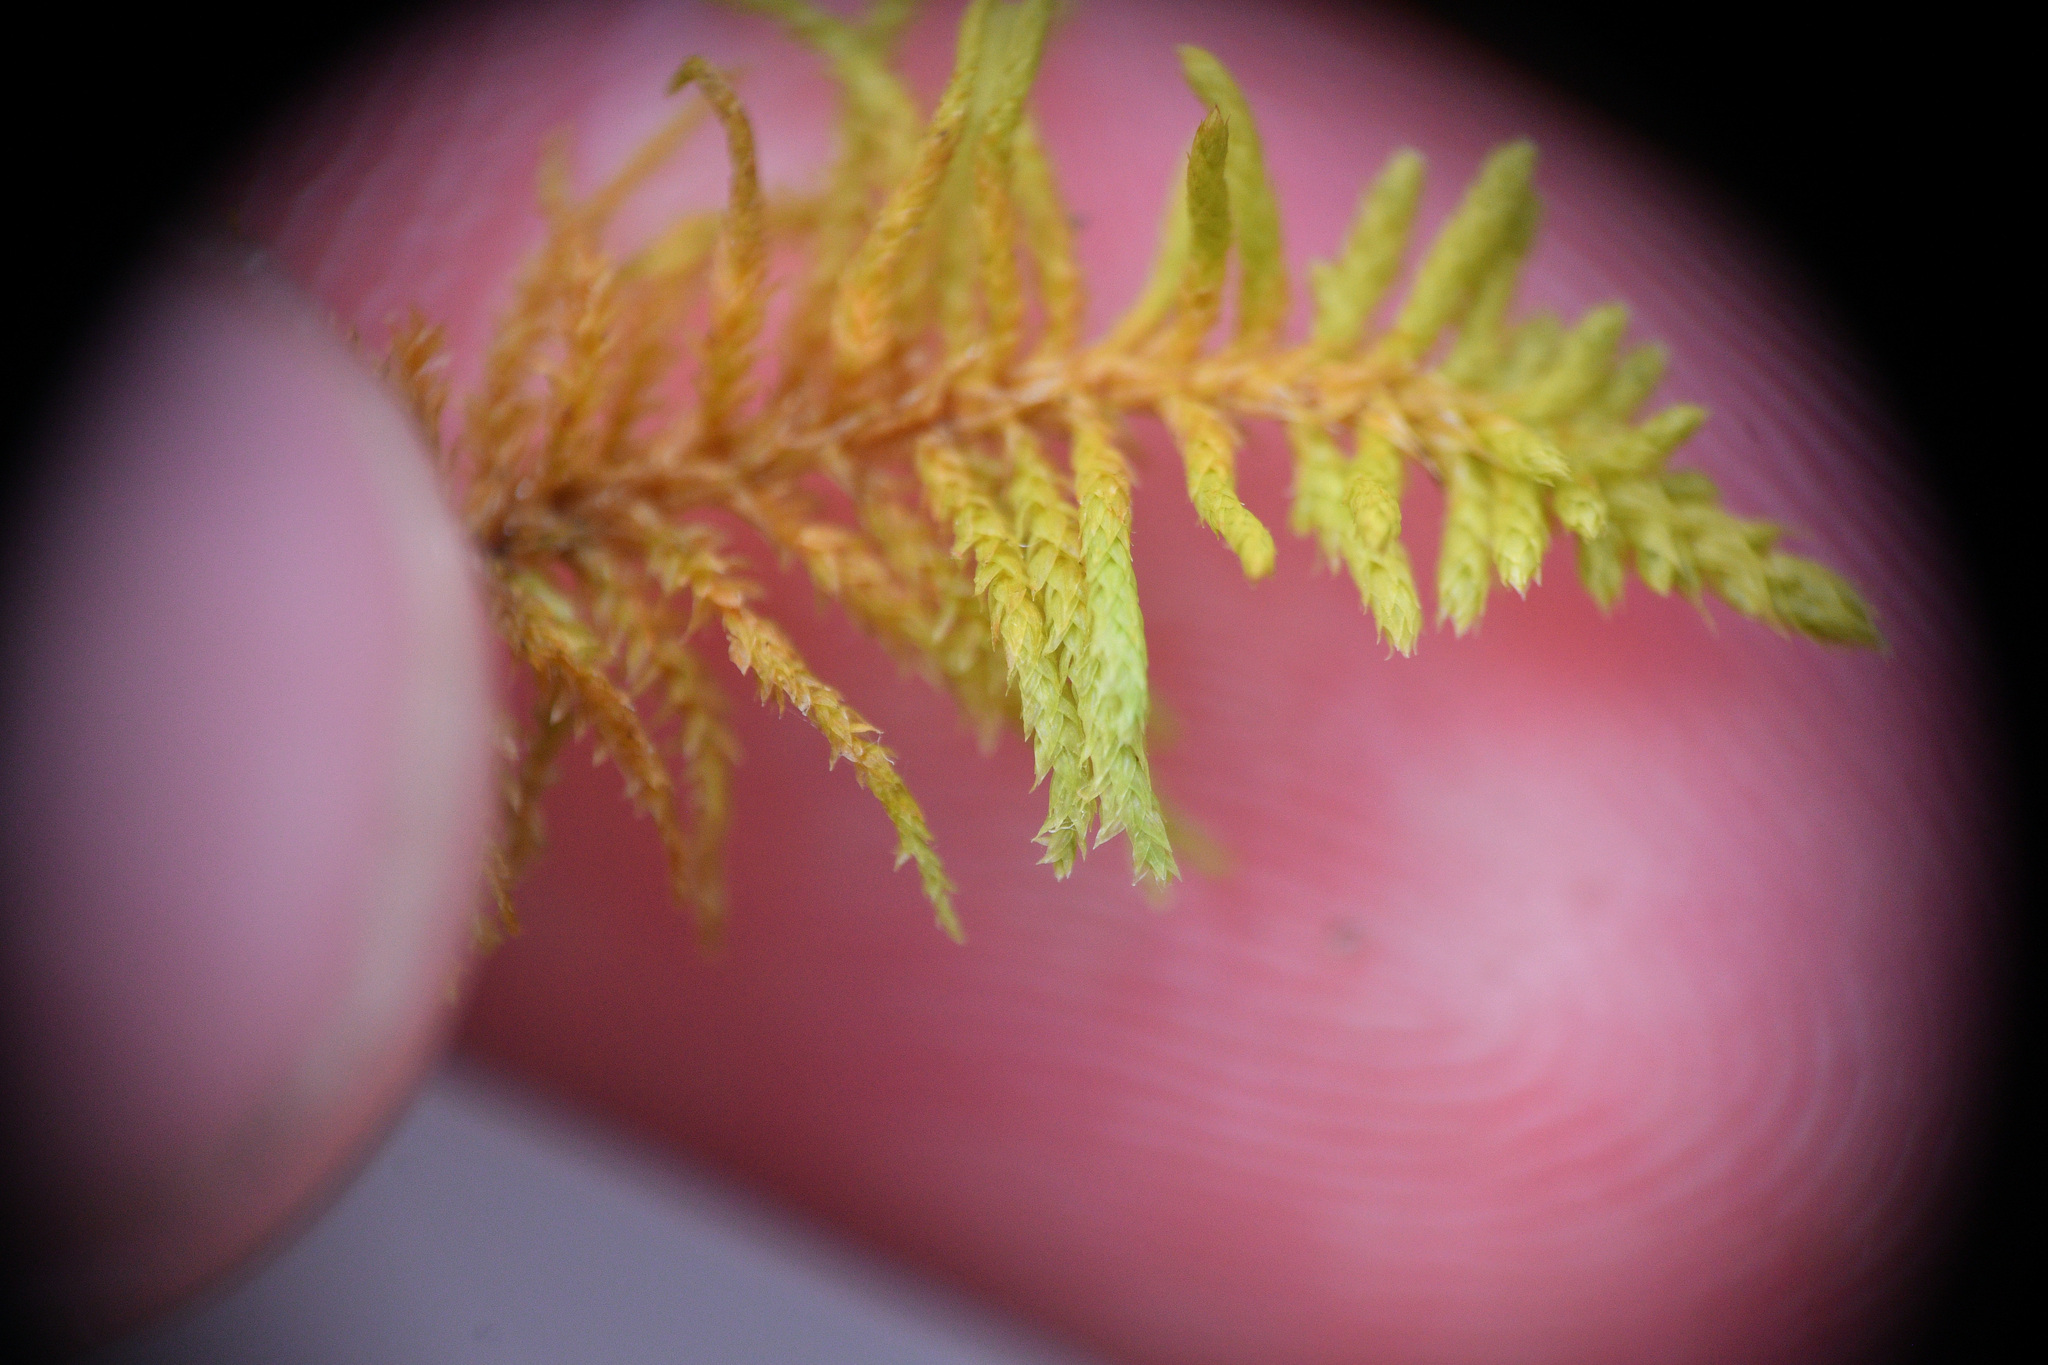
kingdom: Plantae
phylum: Bryophyta
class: Bryopsida
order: Hypnales
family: Thuidiaceae
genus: Abietinella
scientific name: Abietinella abietina
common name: Wiry fern moss
